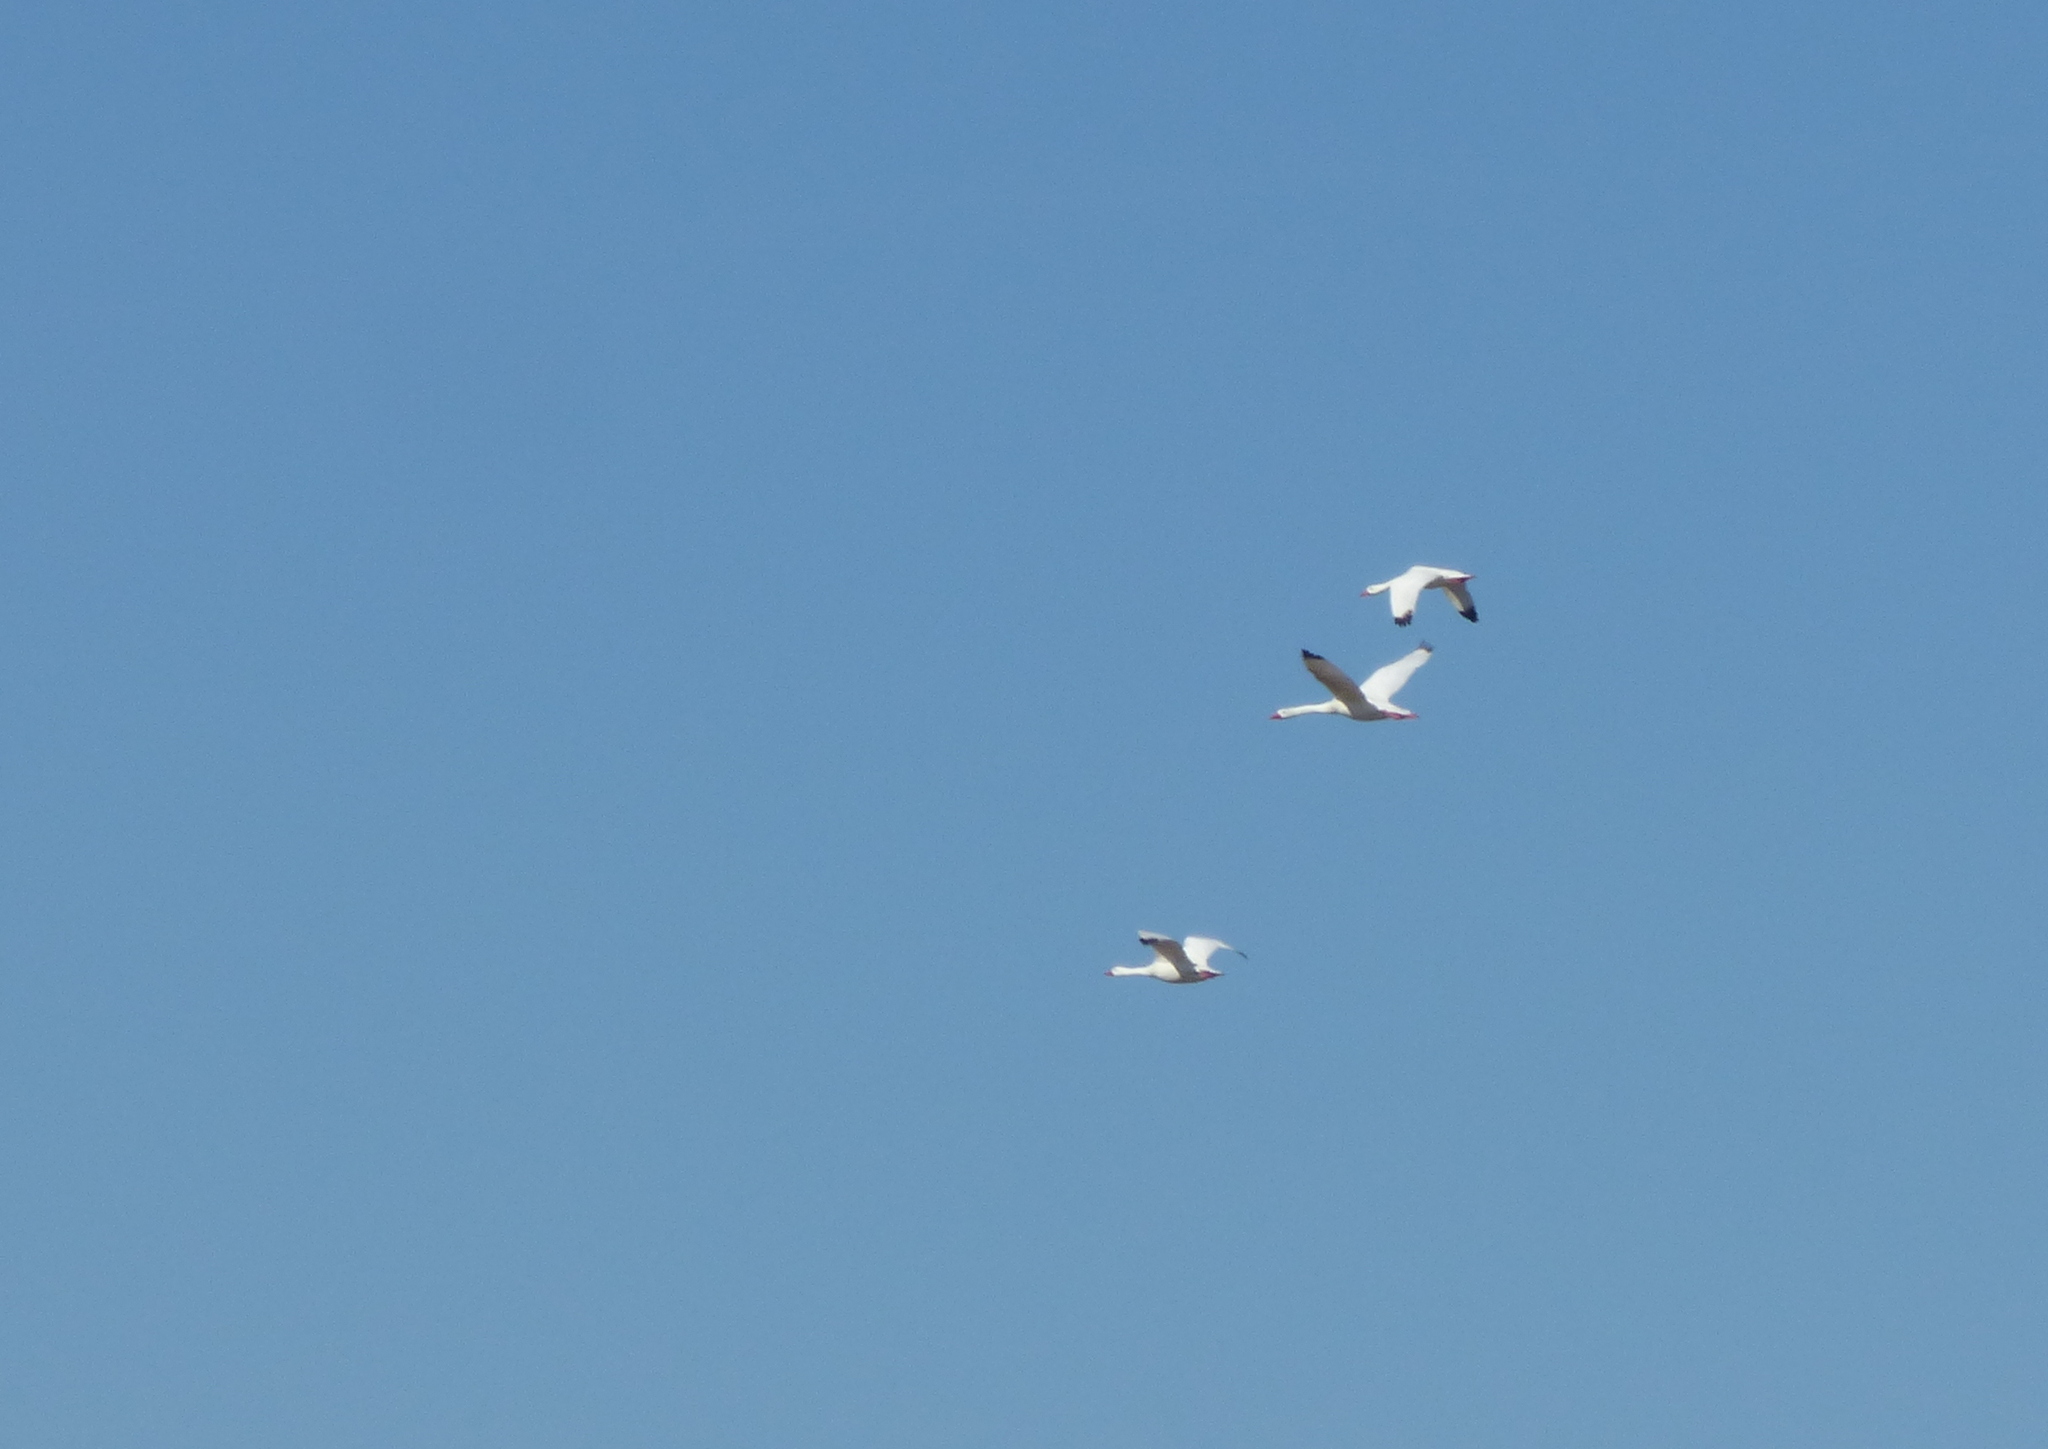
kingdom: Animalia
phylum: Chordata
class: Aves
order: Anseriformes
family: Anatidae
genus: Coscoroba
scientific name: Coscoroba coscoroba
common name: Coscoroba swan
